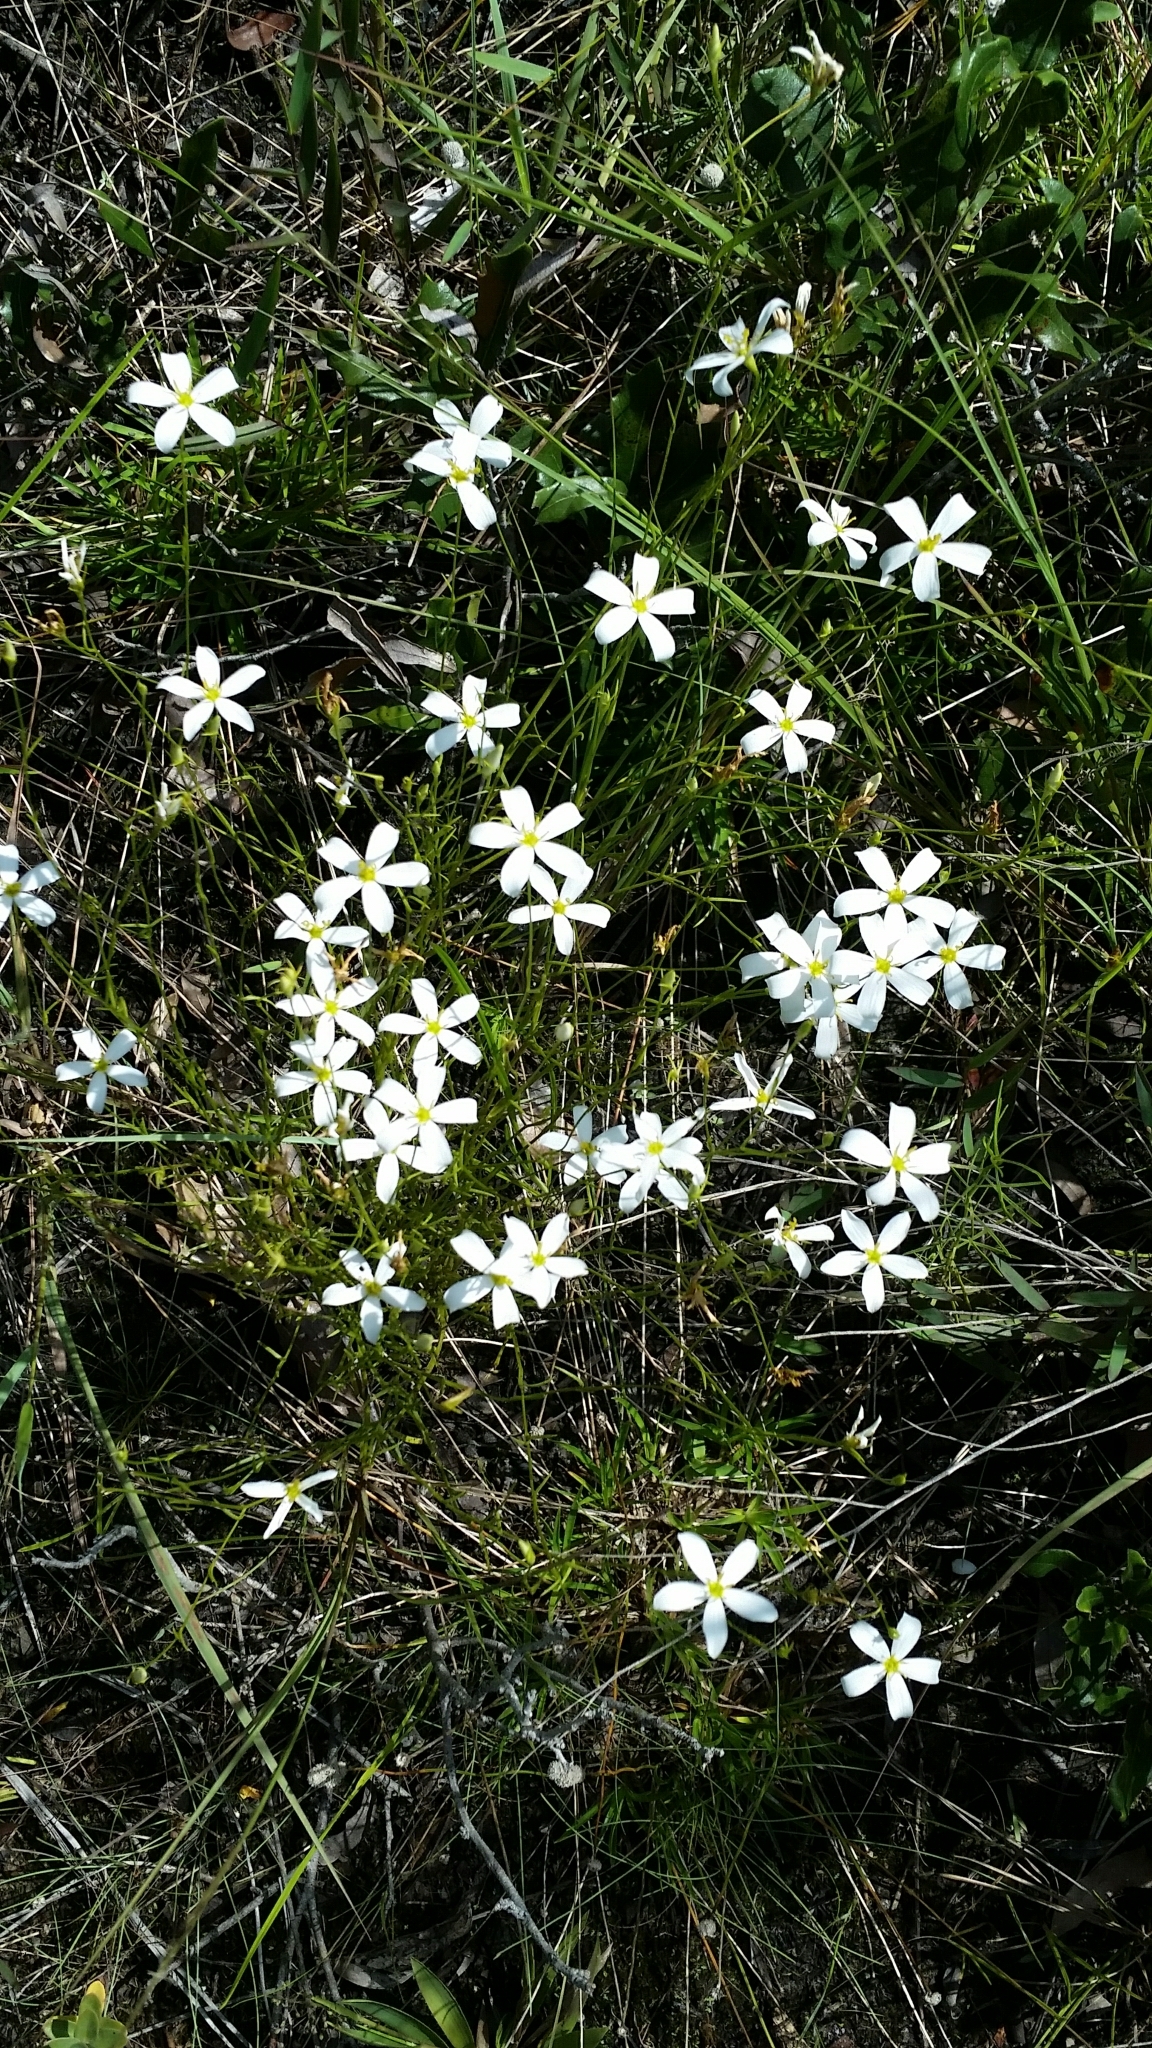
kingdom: Plantae
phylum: Tracheophyta
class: Magnoliopsida
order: Gentianales
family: Gentianaceae
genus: Sabatia
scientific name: Sabatia brevifolia
